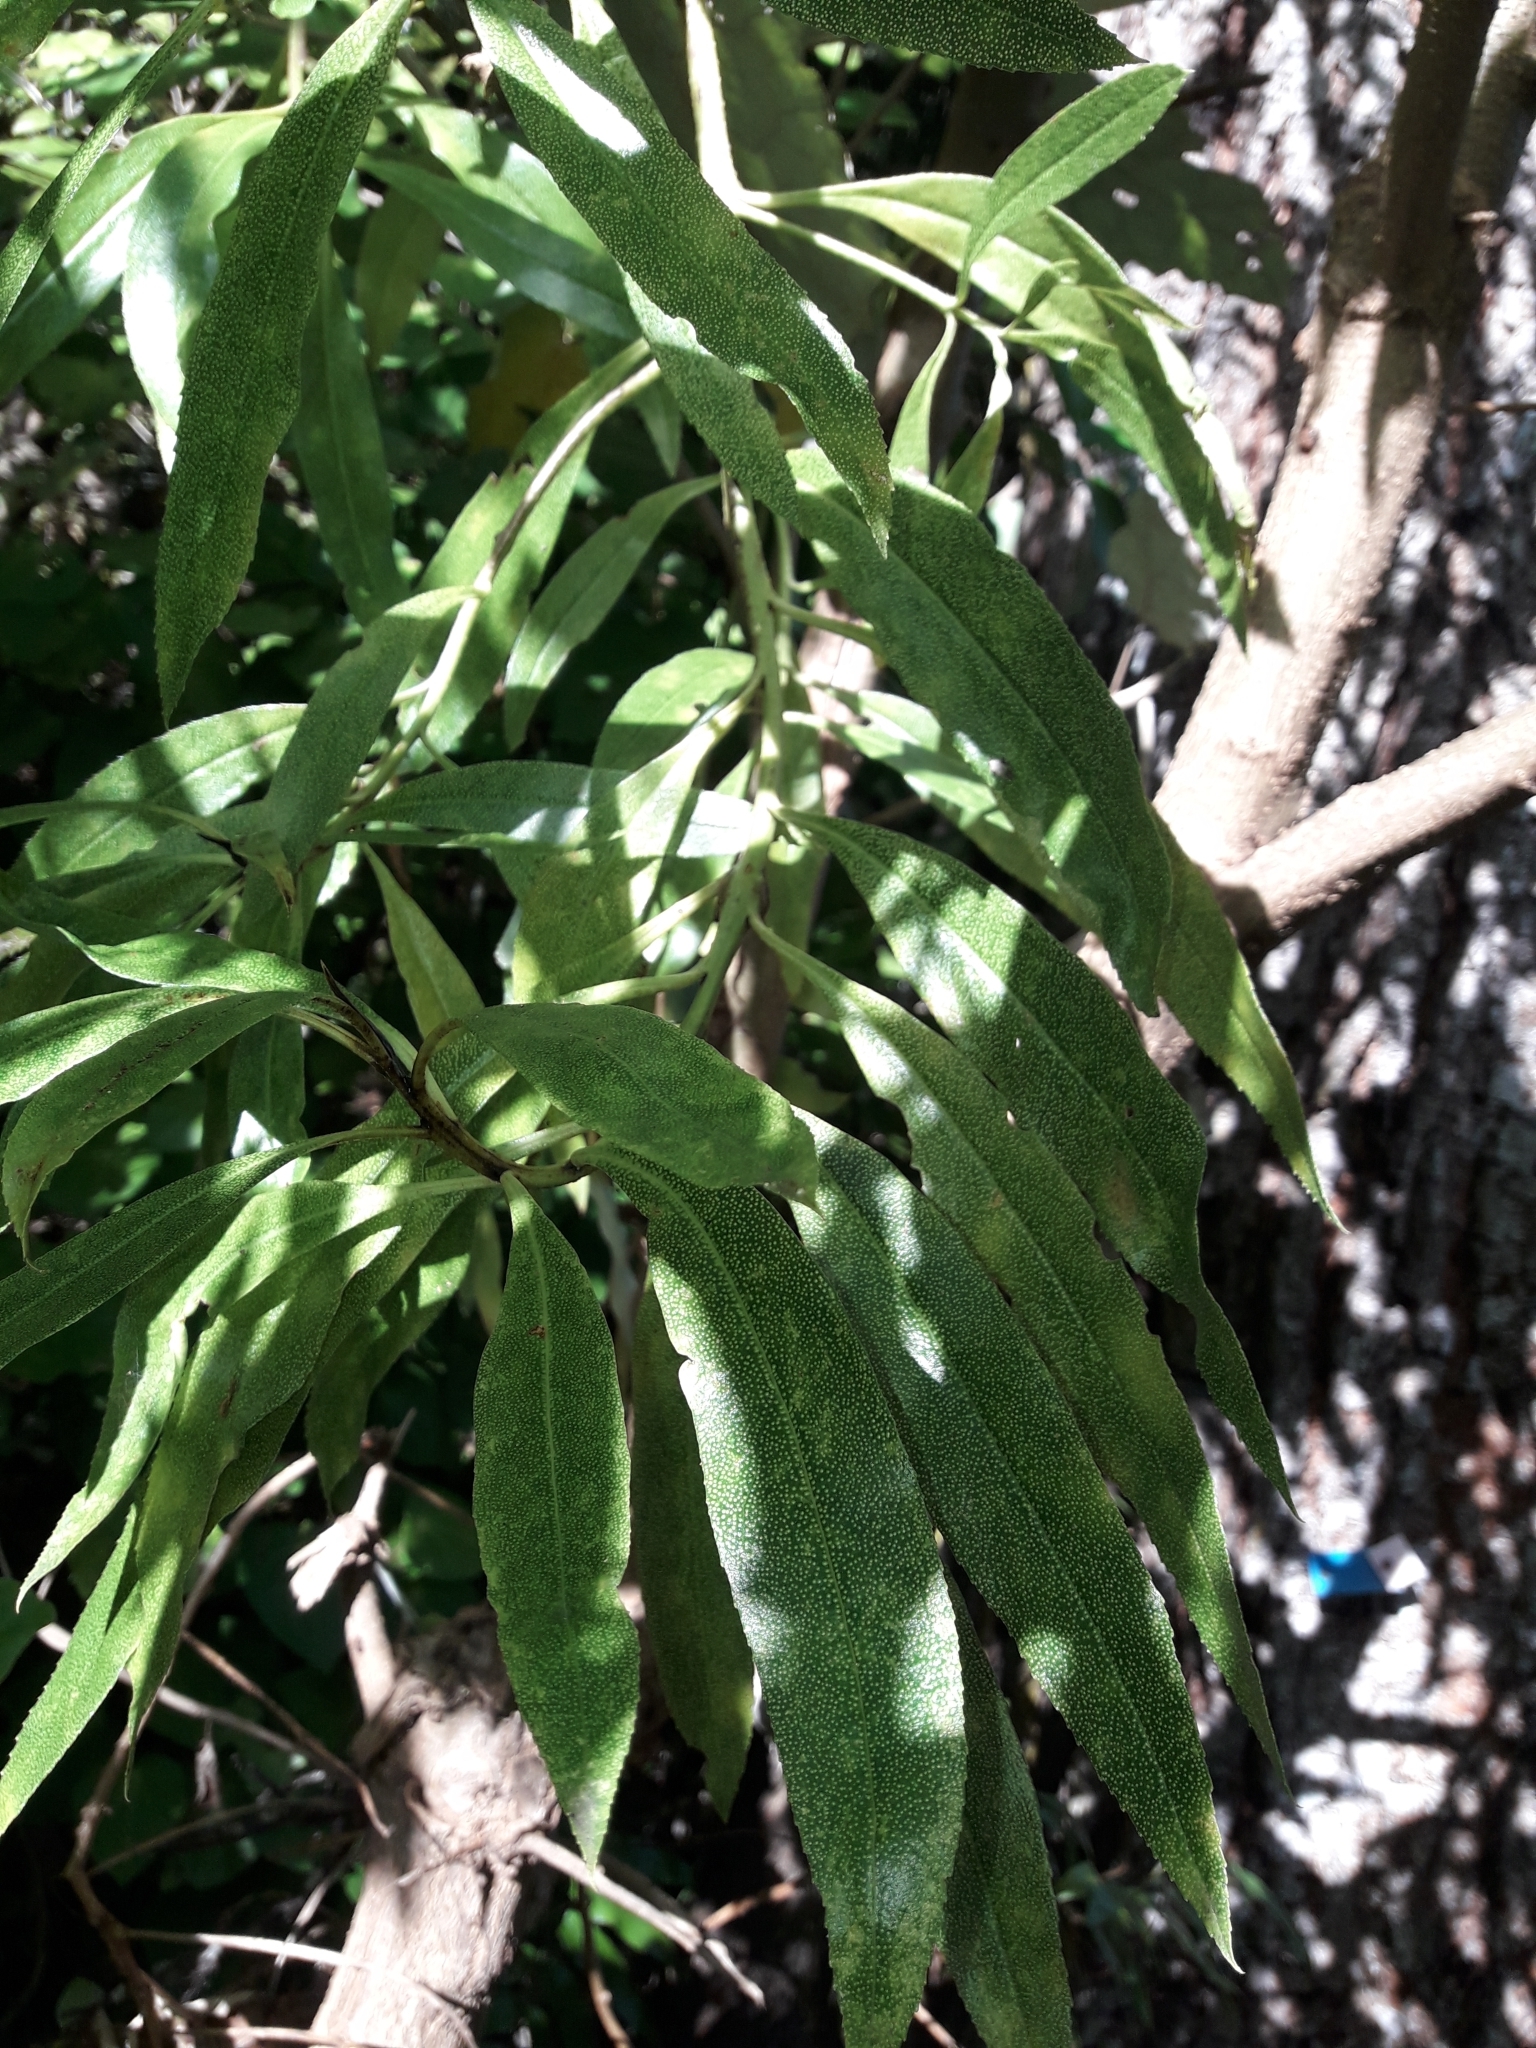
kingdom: Plantae
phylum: Tracheophyta
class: Magnoliopsida
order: Lamiales
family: Scrophulariaceae
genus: Myoporum
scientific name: Myoporum laetum
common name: Ngaio tree
